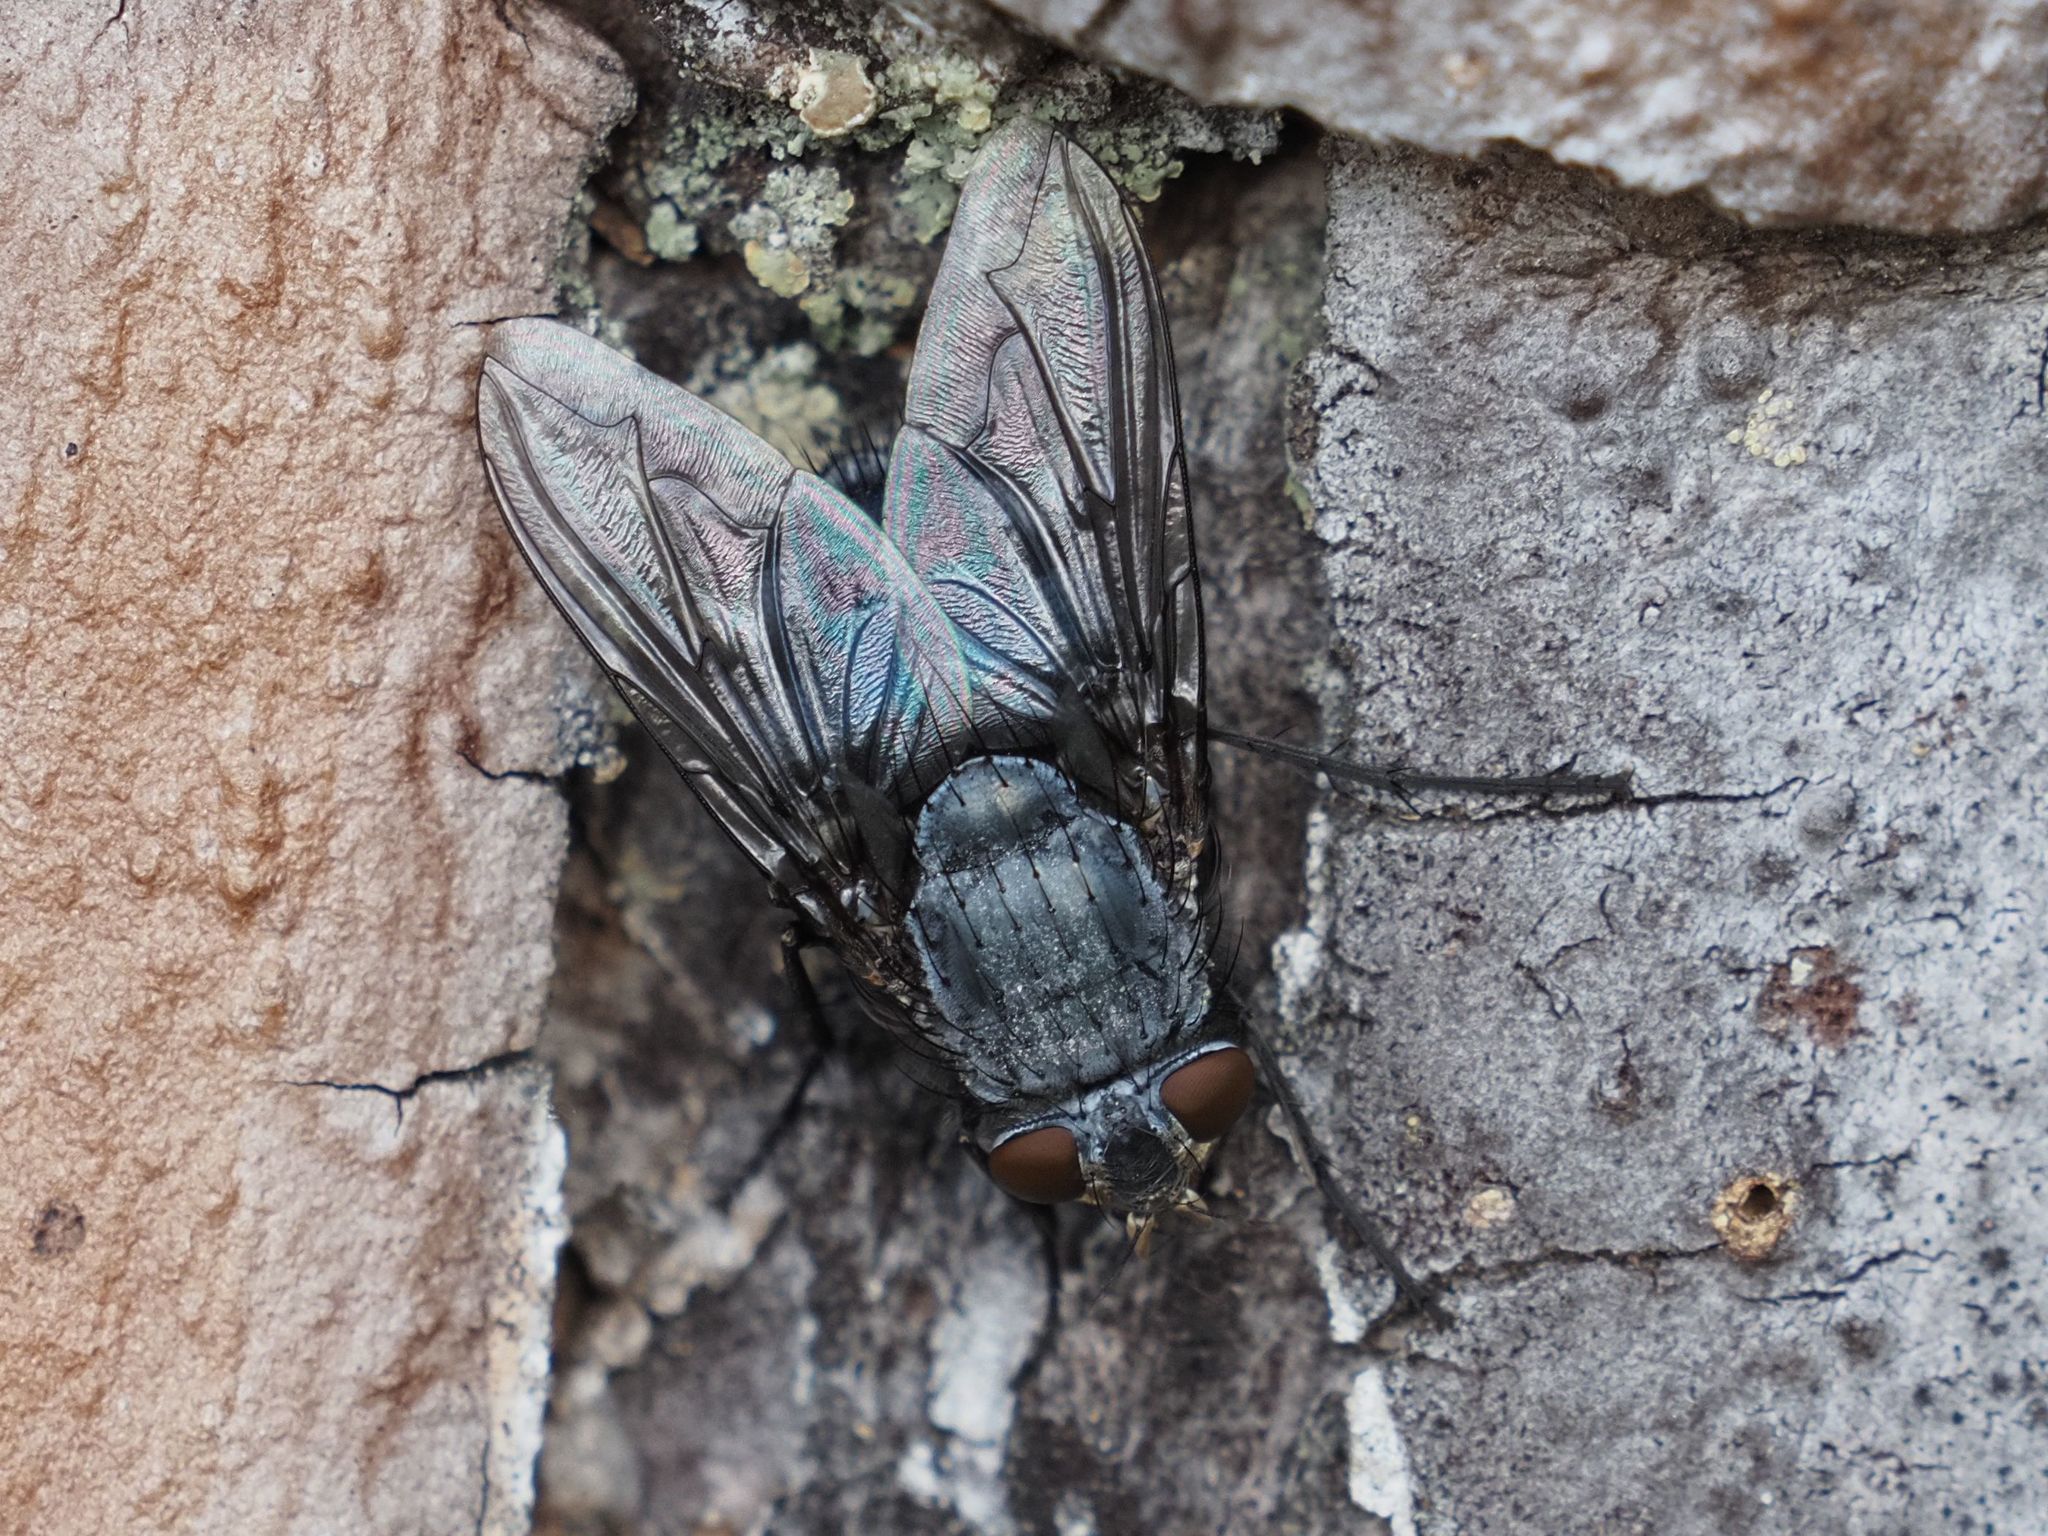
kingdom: Animalia
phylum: Arthropoda
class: Insecta
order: Diptera
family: Calliphoridae
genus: Calliphora
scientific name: Calliphora vicina
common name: Common blow flie
